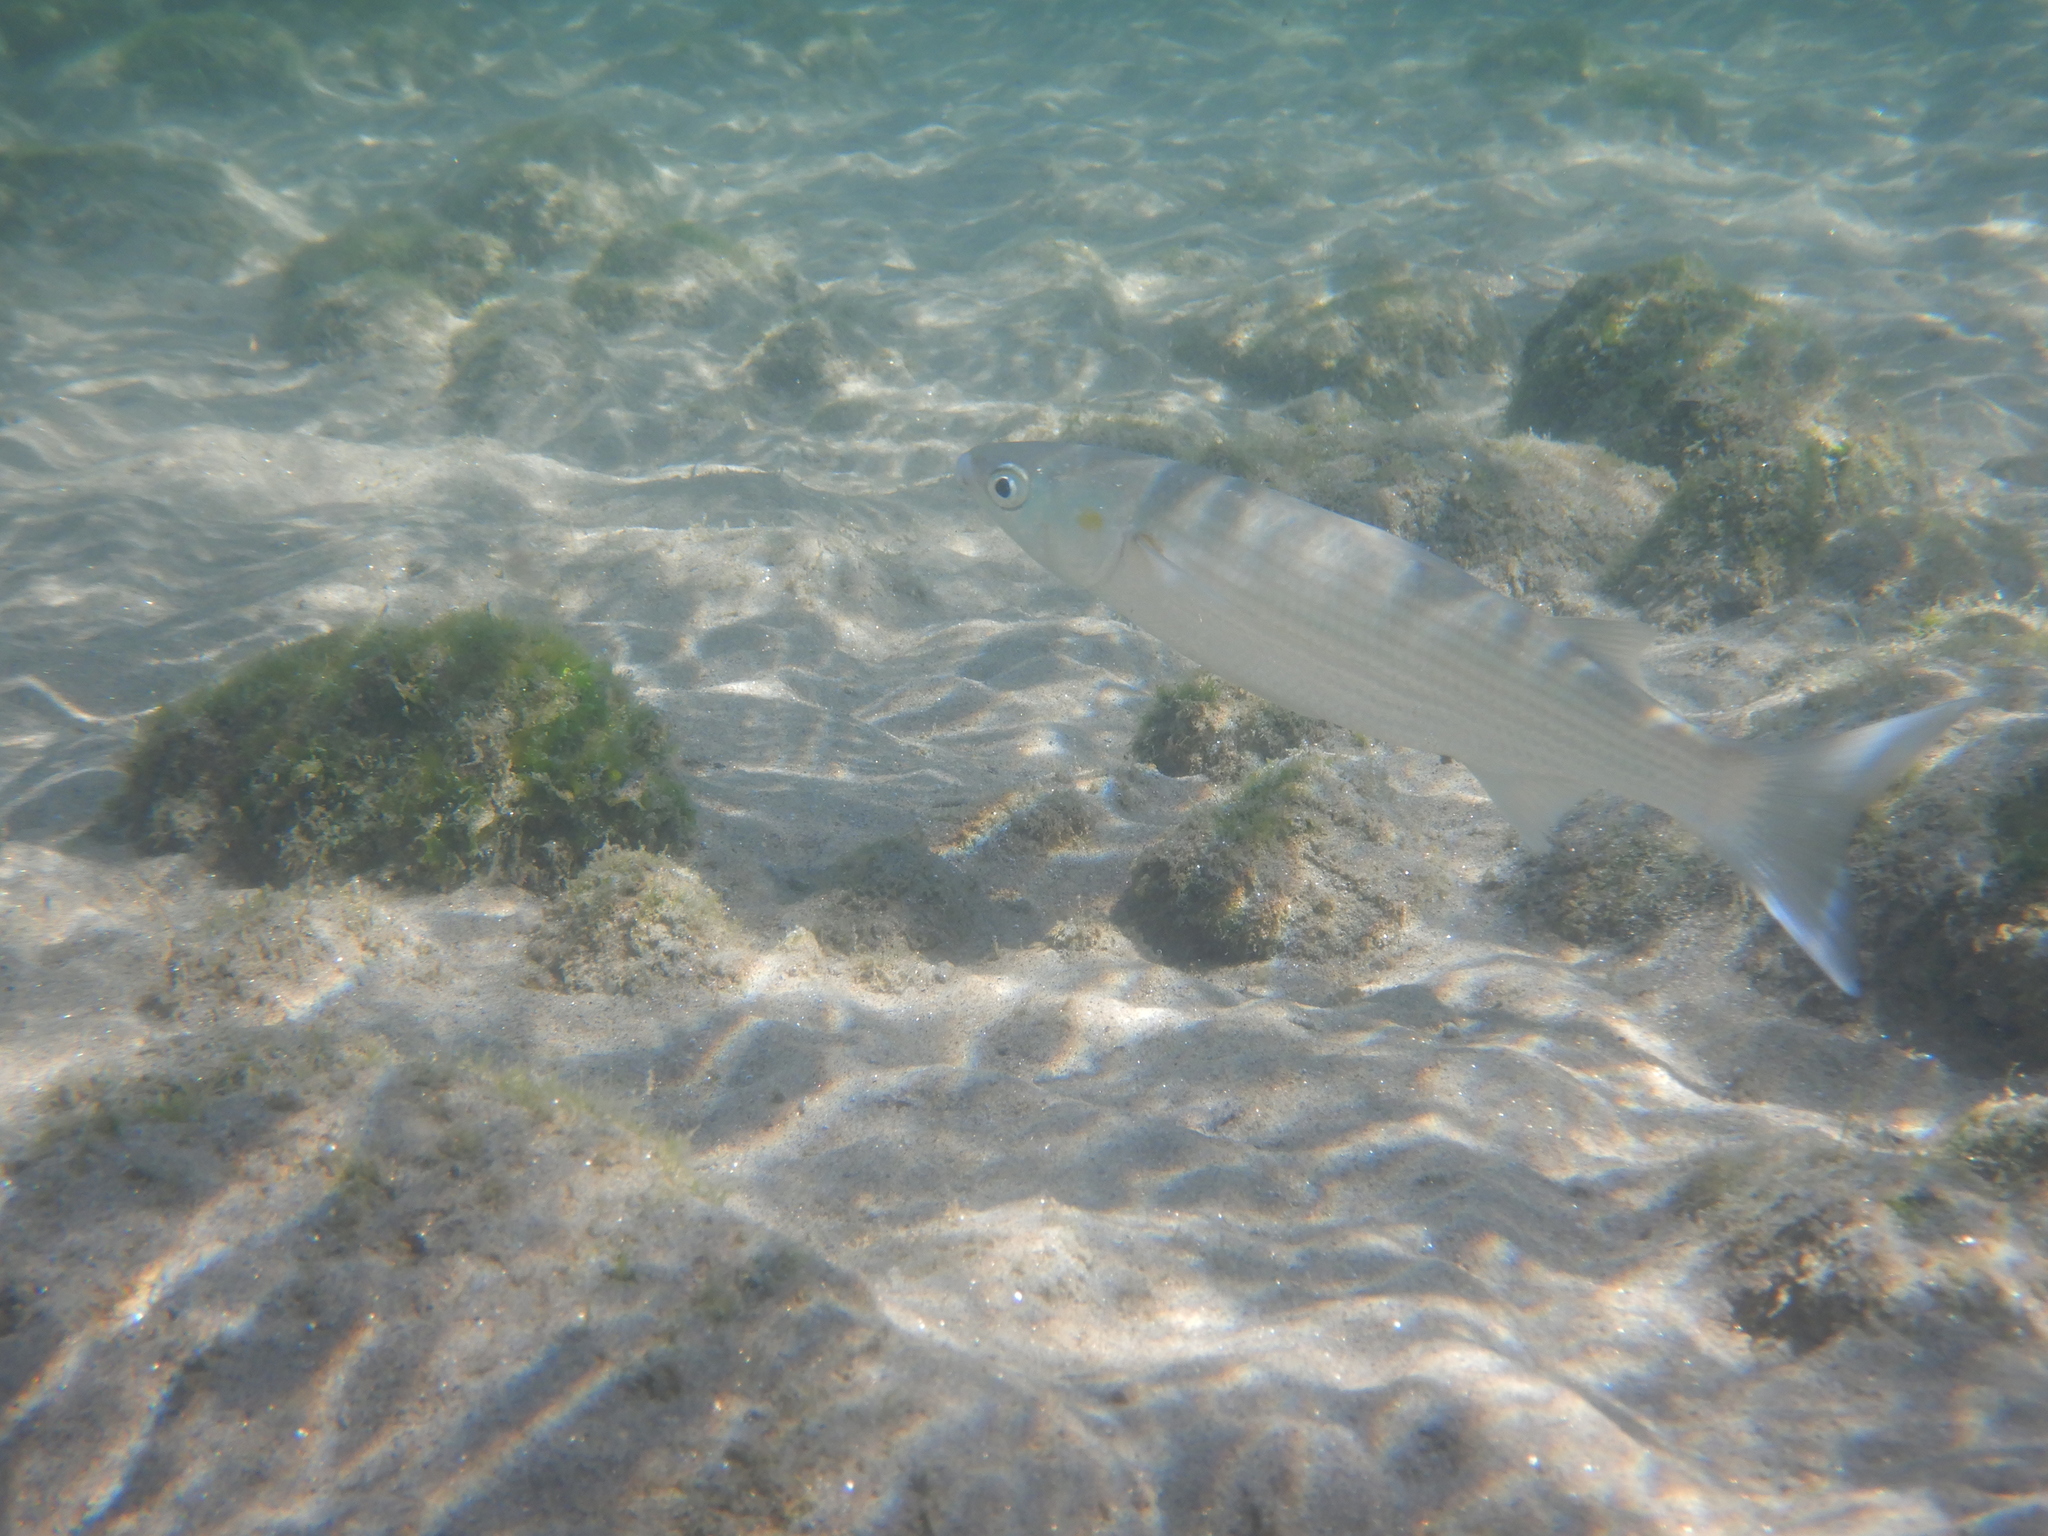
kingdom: Animalia
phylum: Chordata
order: Mugiliformes
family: Mugilidae
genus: Chelon
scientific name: Chelon
